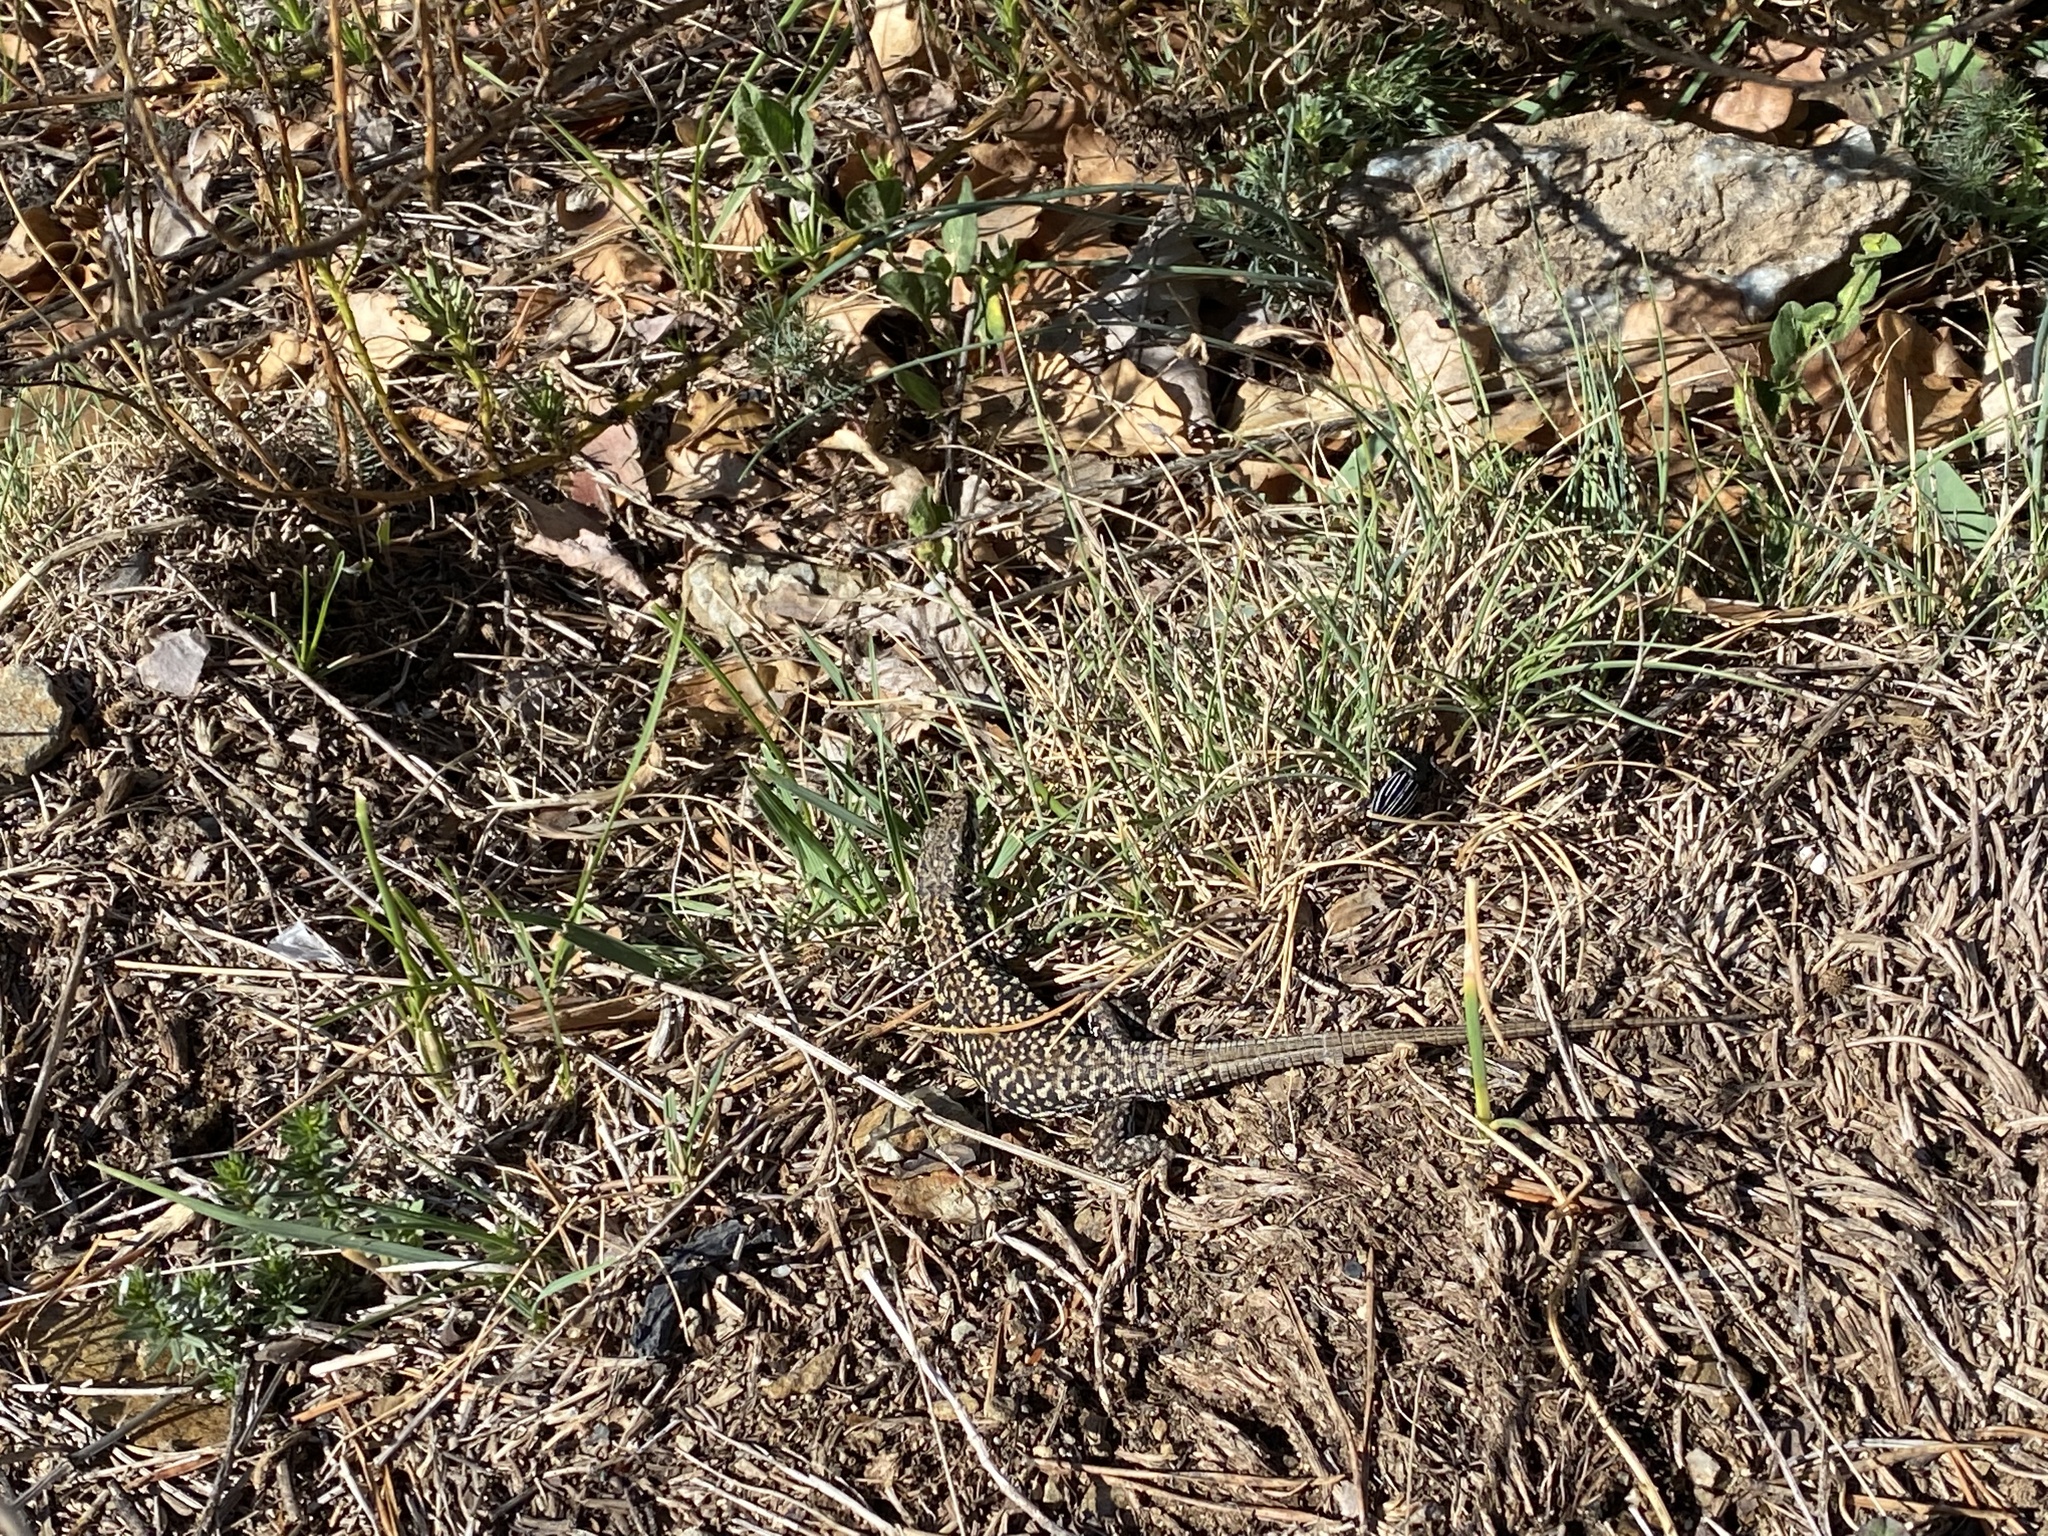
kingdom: Animalia
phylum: Chordata
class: Squamata
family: Lacertidae
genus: Podarcis
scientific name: Podarcis muralis
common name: Common wall lizard
